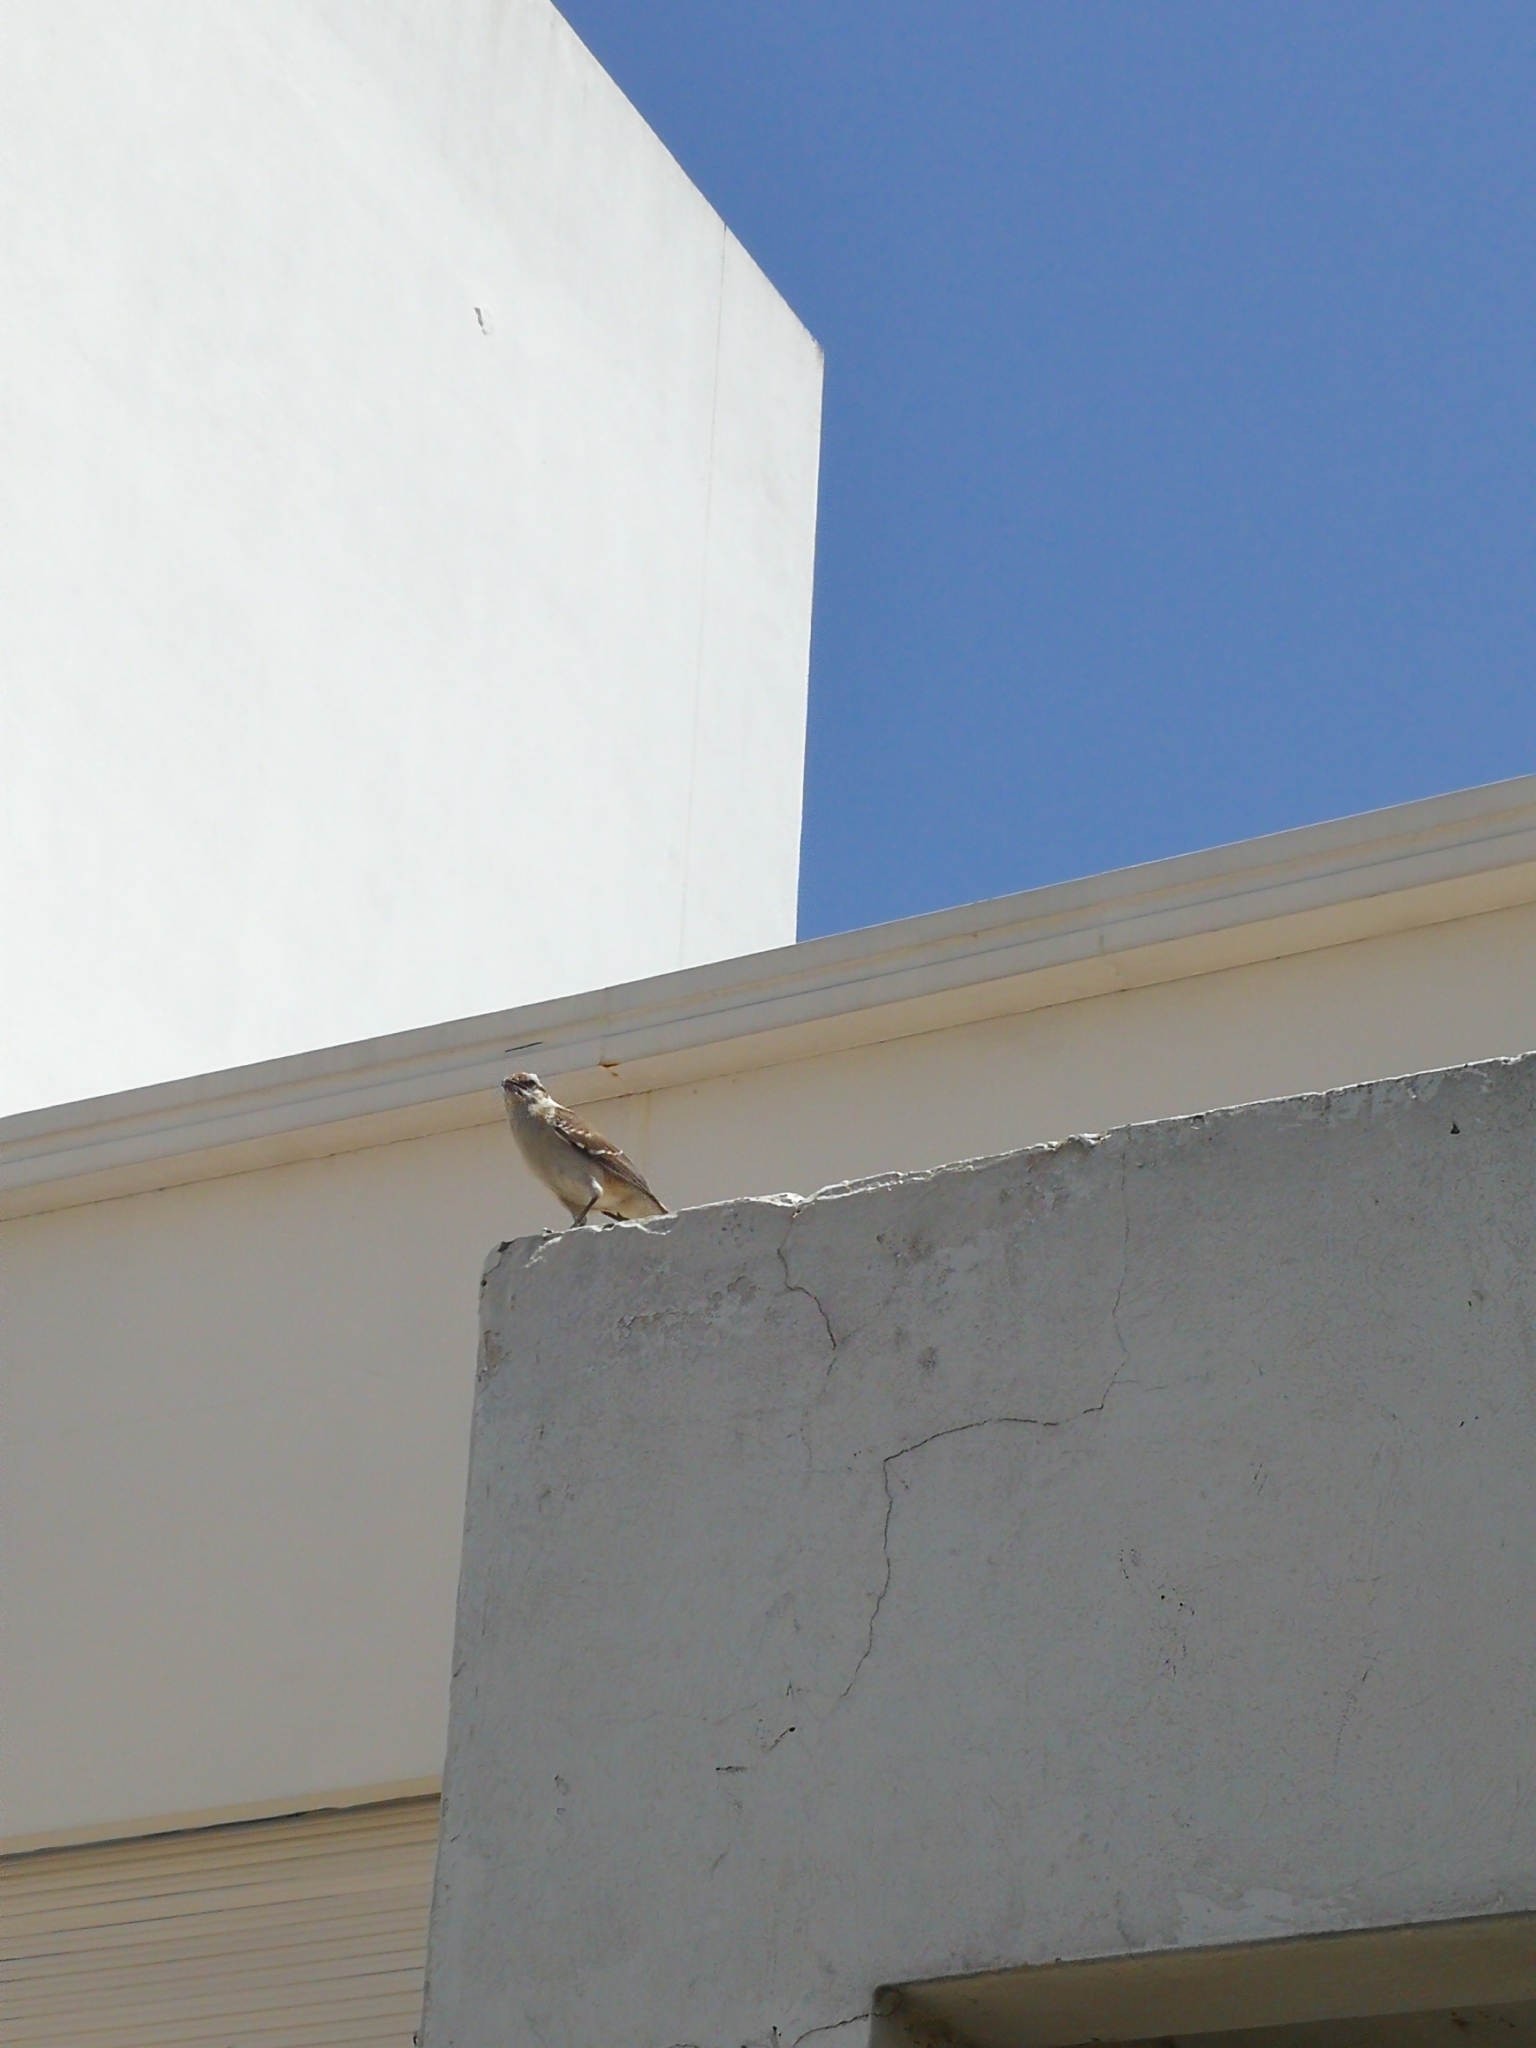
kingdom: Animalia
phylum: Chordata
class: Aves
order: Passeriformes
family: Mimidae
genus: Mimus
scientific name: Mimus saturninus
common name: Chalk-browed mockingbird
